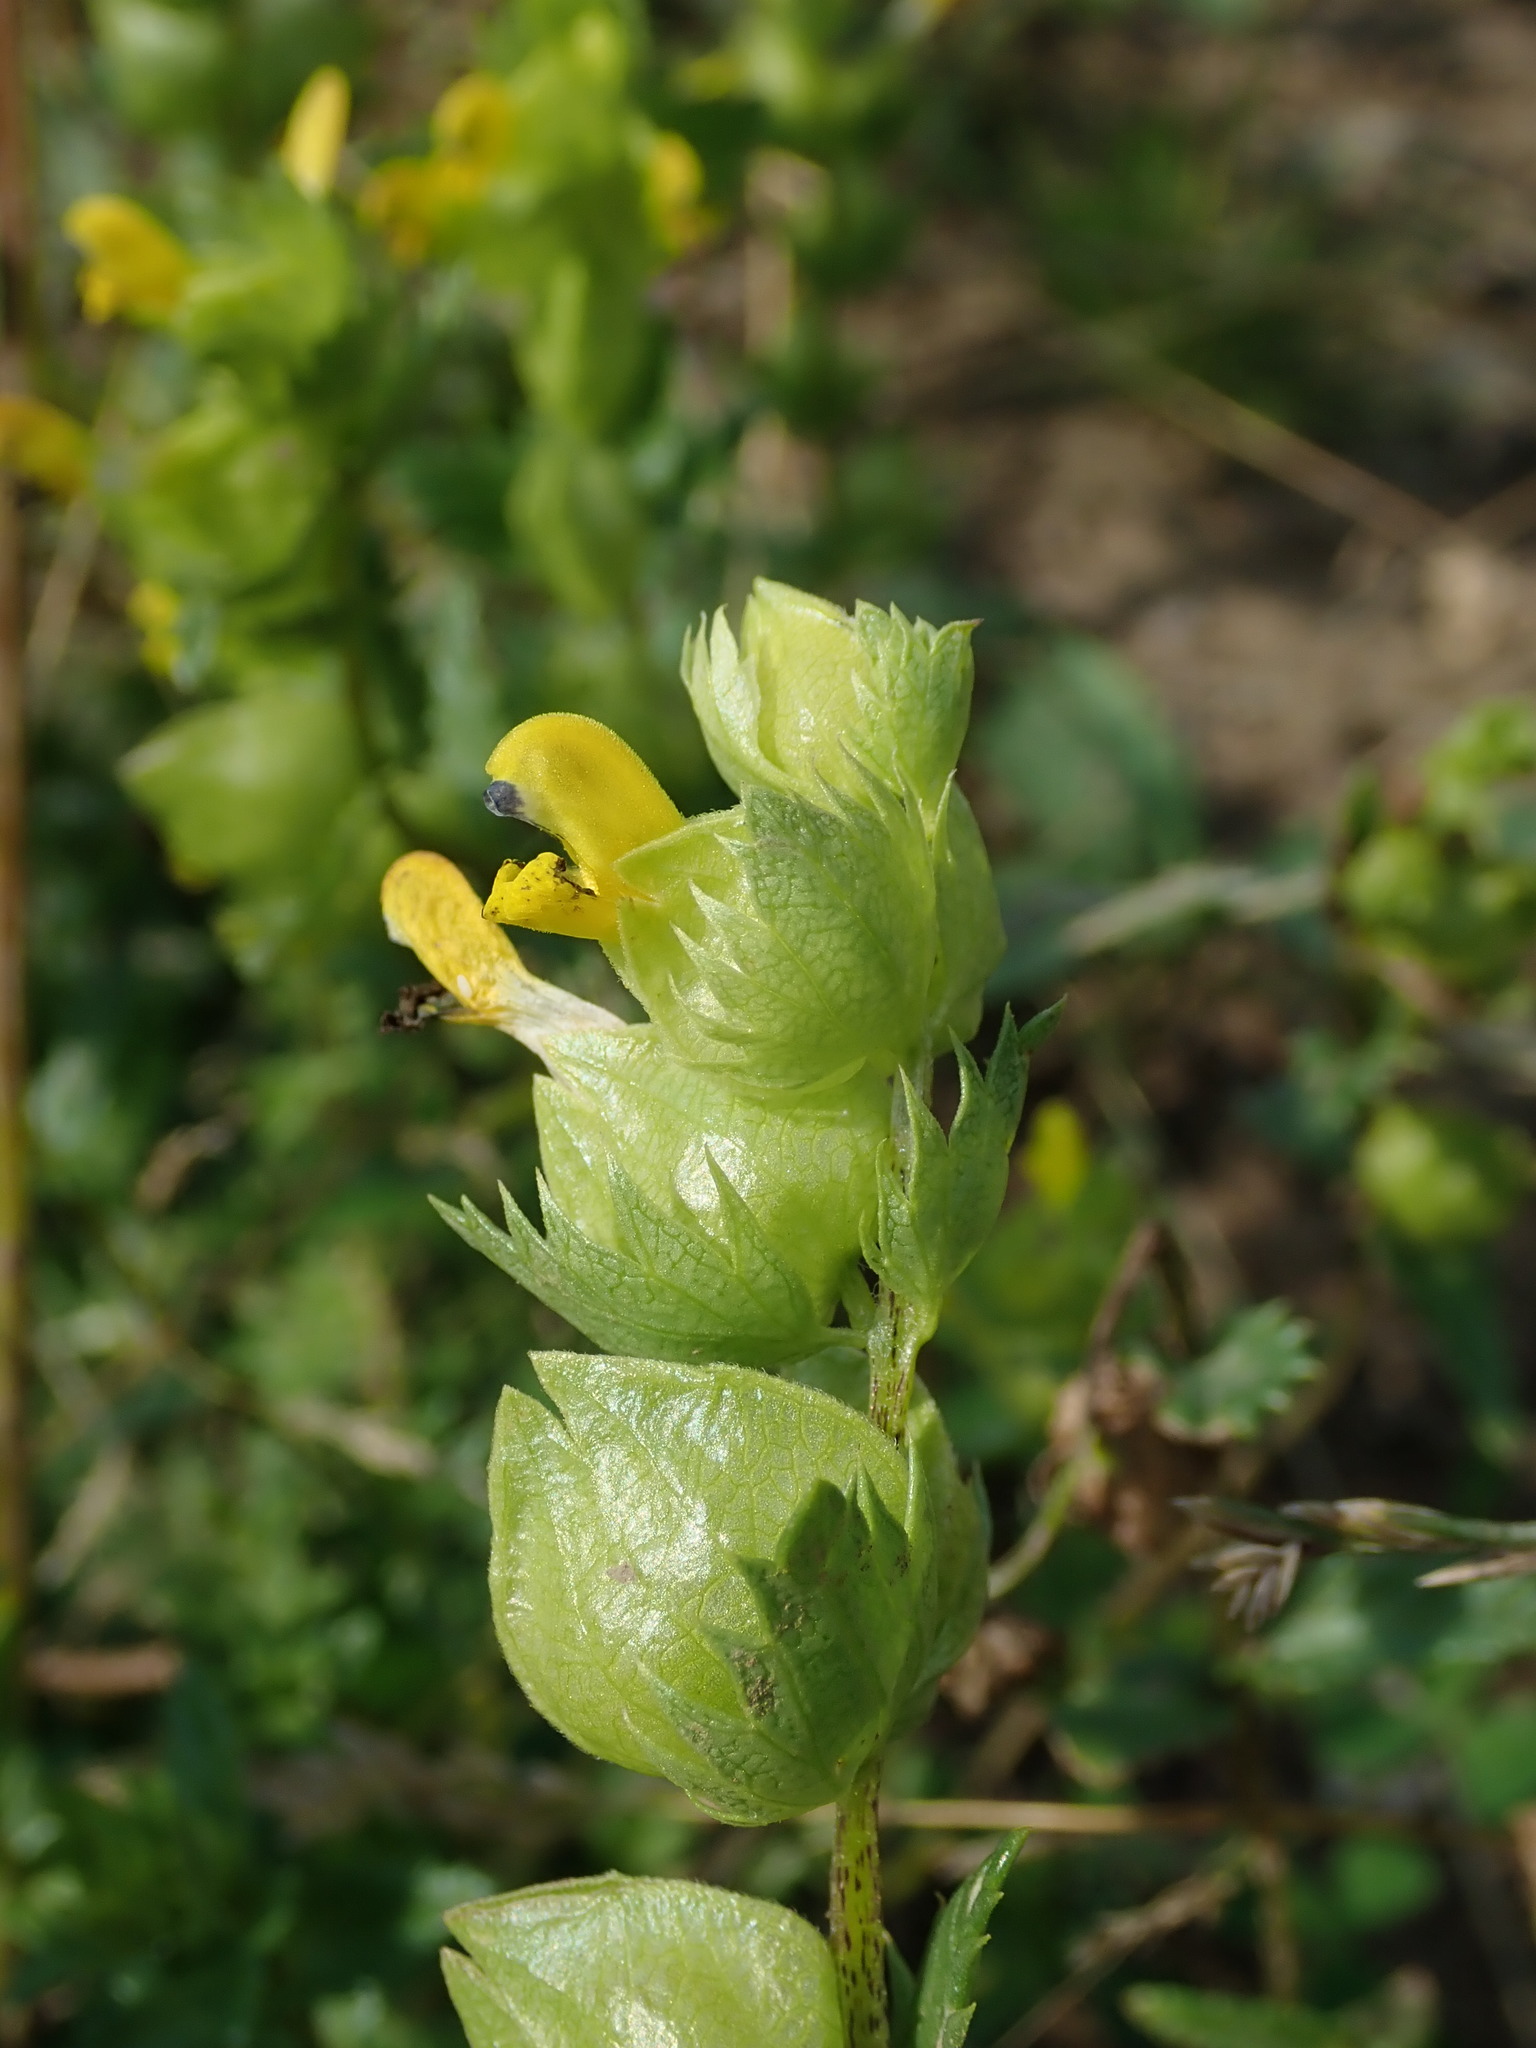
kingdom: Plantae
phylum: Tracheophyta
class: Magnoliopsida
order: Lamiales
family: Orobanchaceae
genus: Rhinanthus
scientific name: Rhinanthus minor
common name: Yellow-rattle
